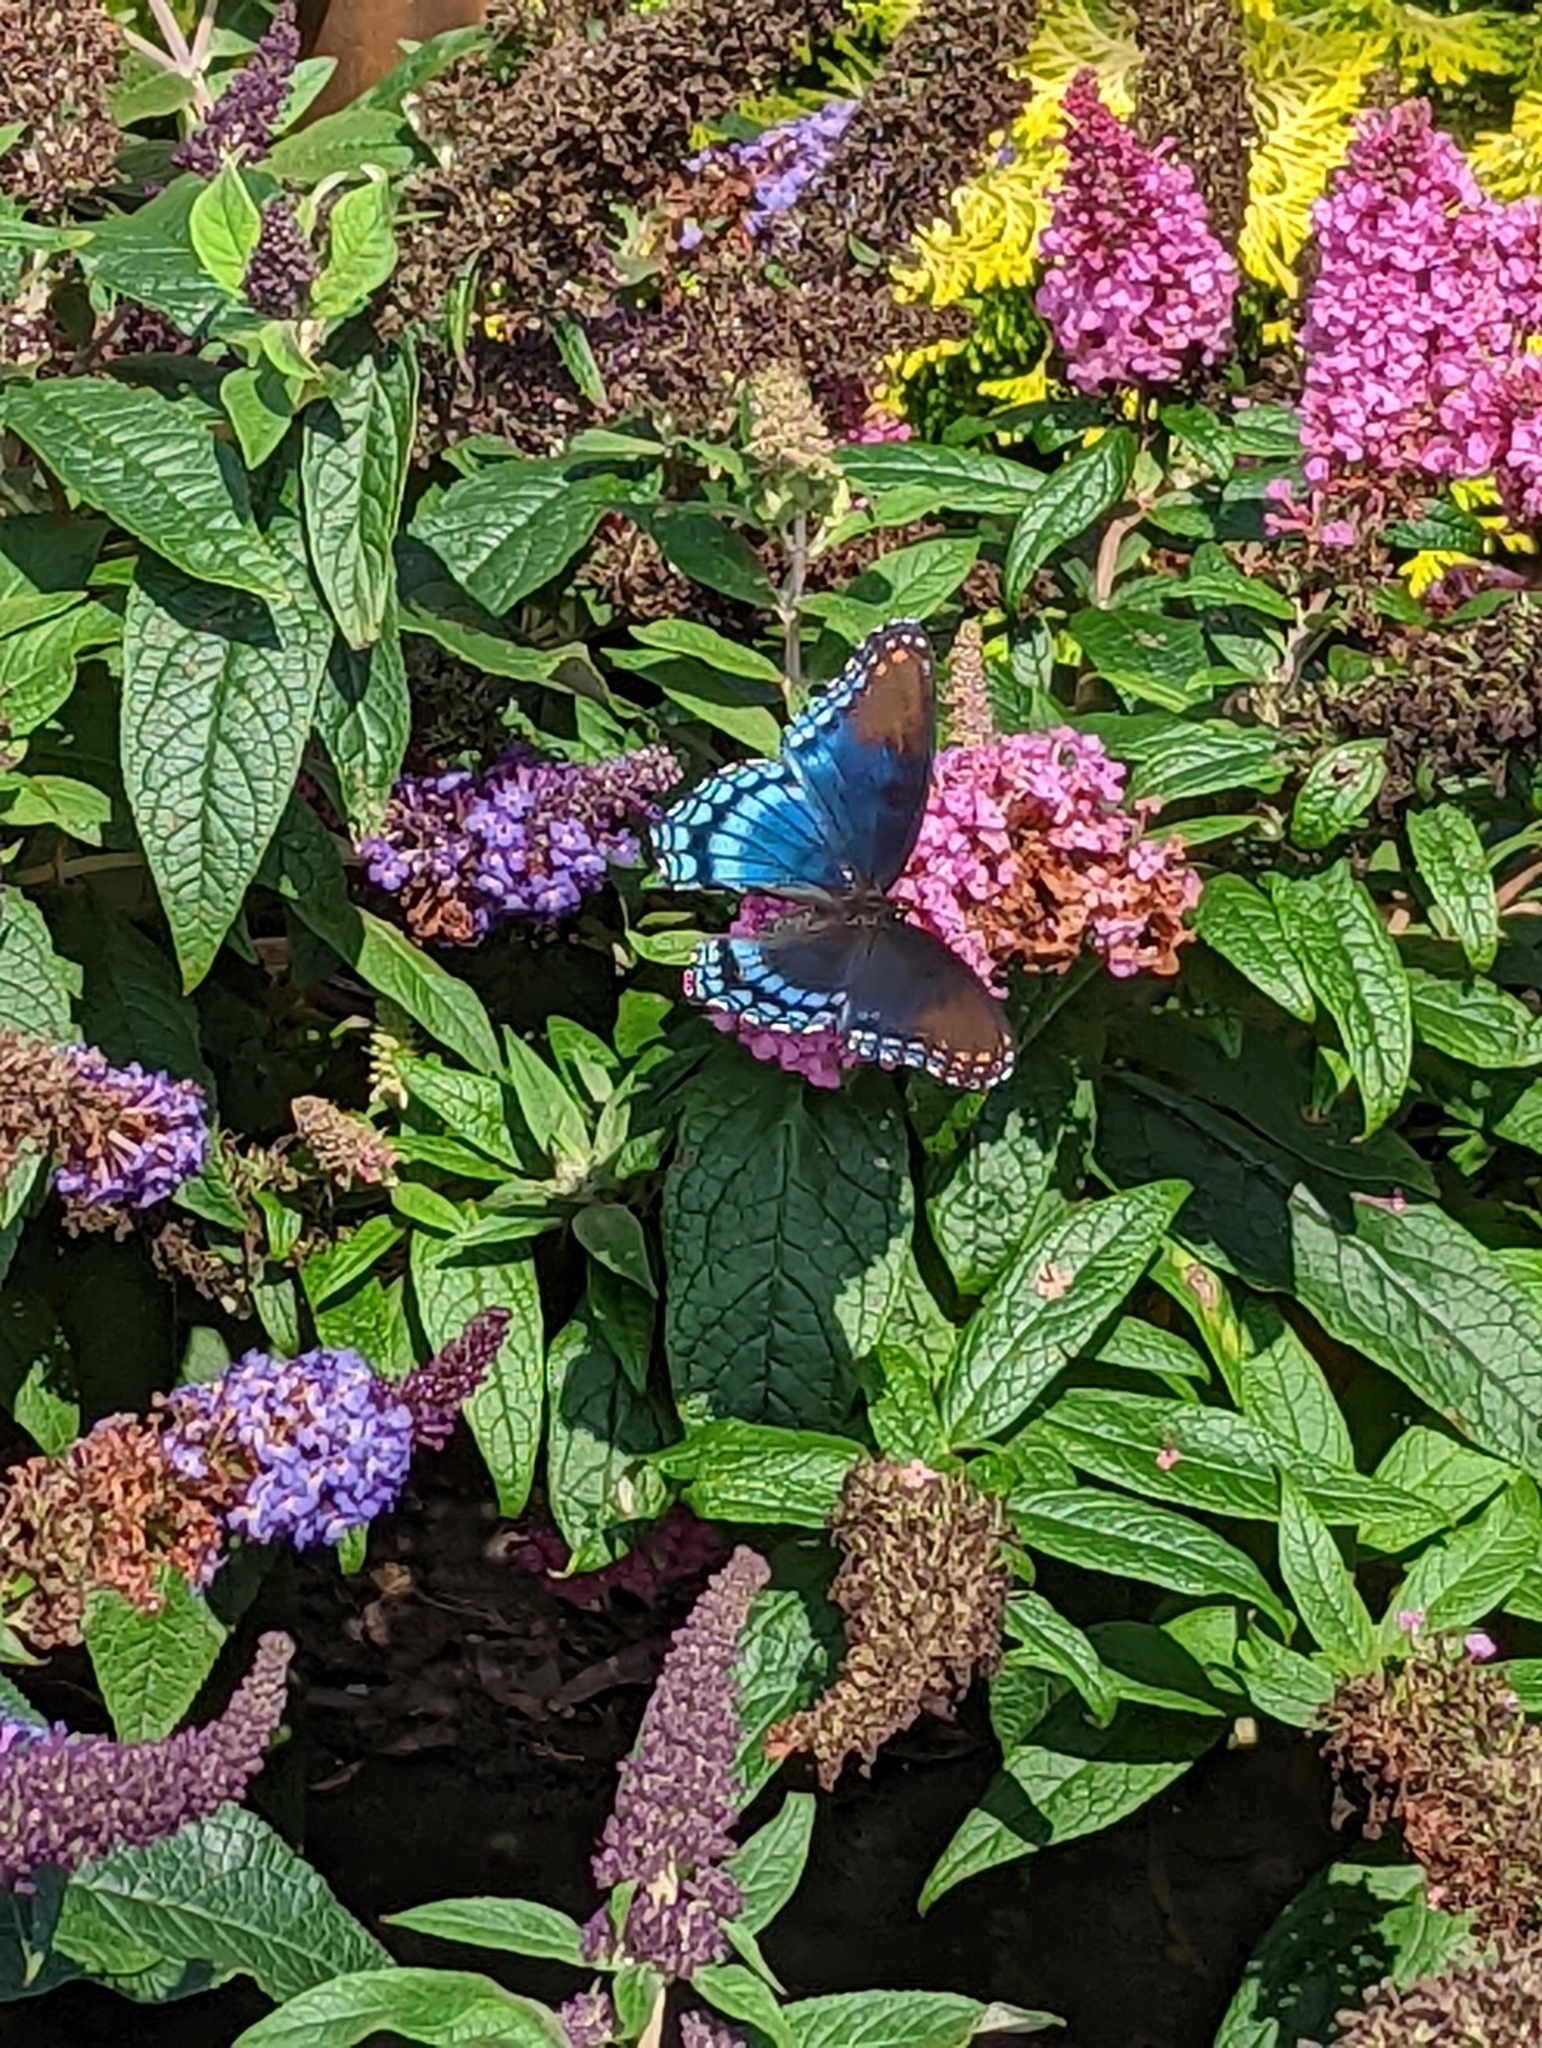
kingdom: Animalia
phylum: Arthropoda
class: Insecta
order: Lepidoptera
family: Nymphalidae
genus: Limenitis
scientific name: Limenitis astyanax
